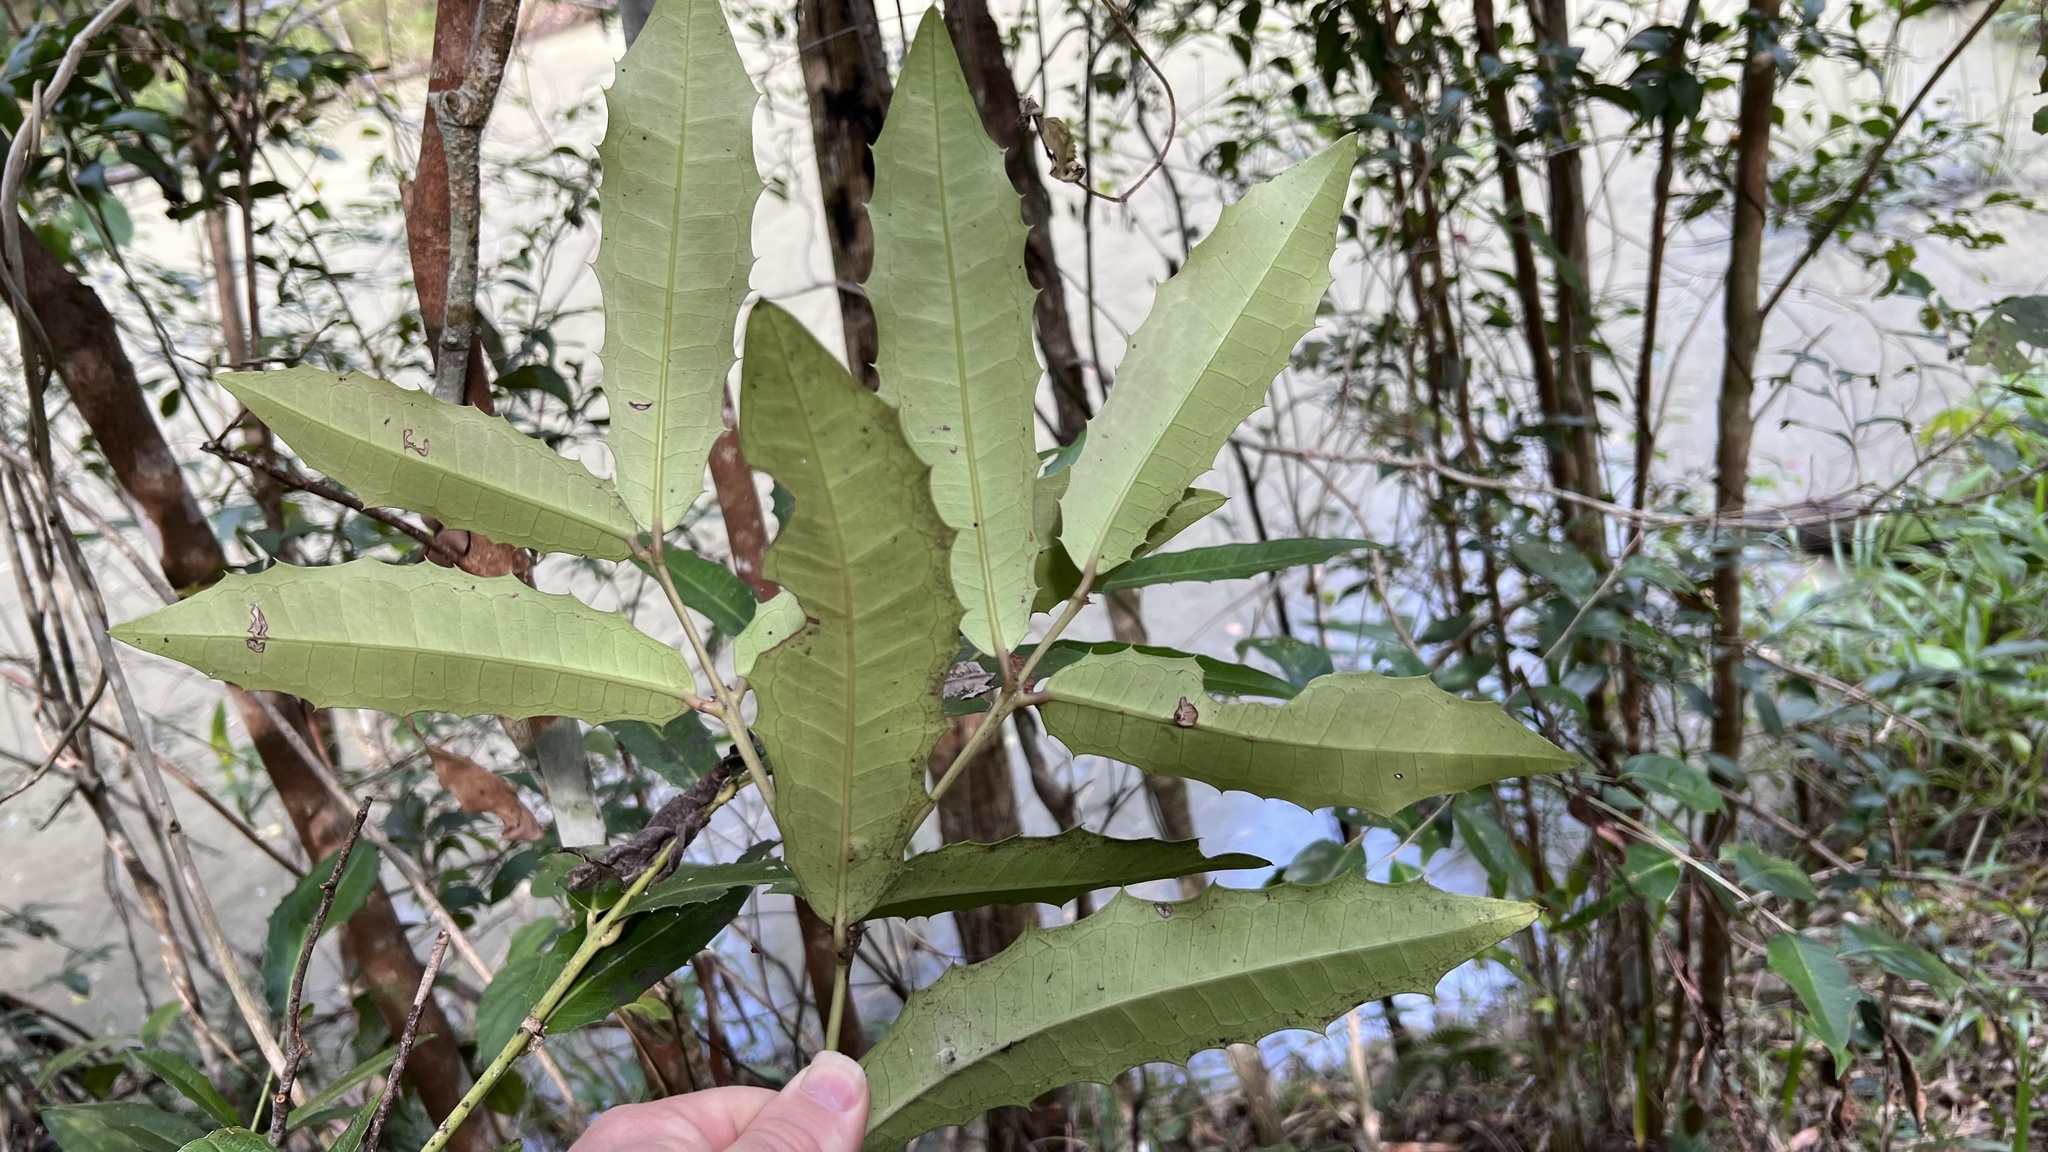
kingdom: Plantae
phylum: Tracheophyta
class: Magnoliopsida
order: Laurales
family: Monimiaceae
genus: Wilkiea
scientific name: Wilkiea macrophylla
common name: Large-leaved wilkiea
